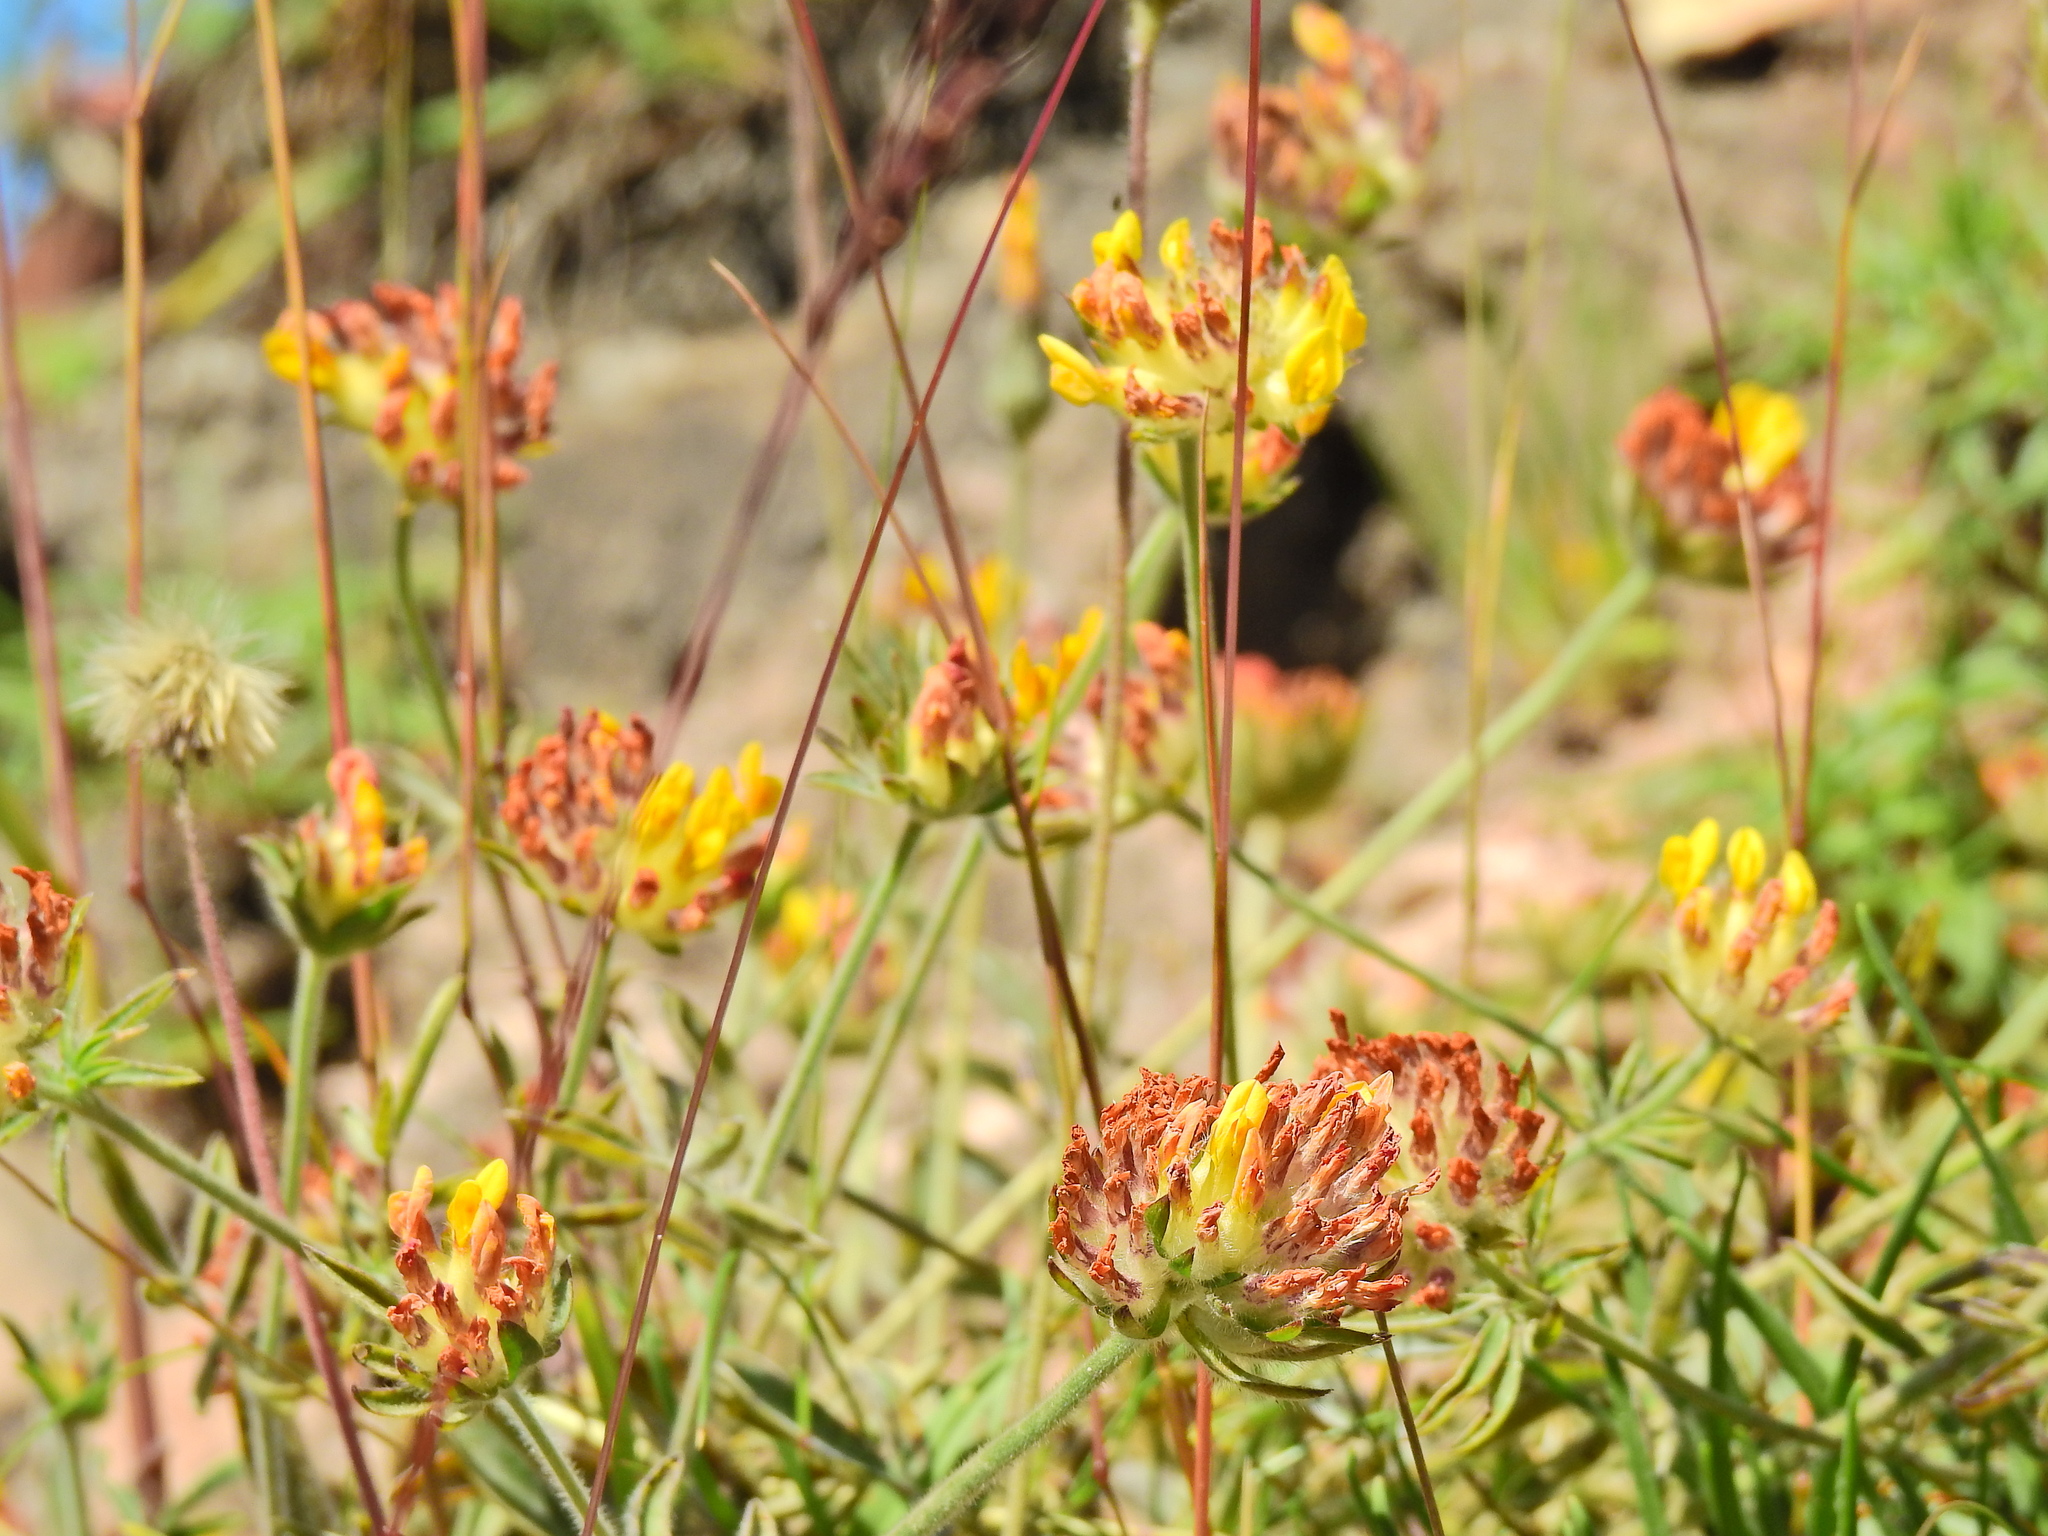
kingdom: Plantae
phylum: Tracheophyta
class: Magnoliopsida
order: Fabales
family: Fabaceae
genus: Anthyllis
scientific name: Anthyllis vulneraria
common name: Kidney vetch
